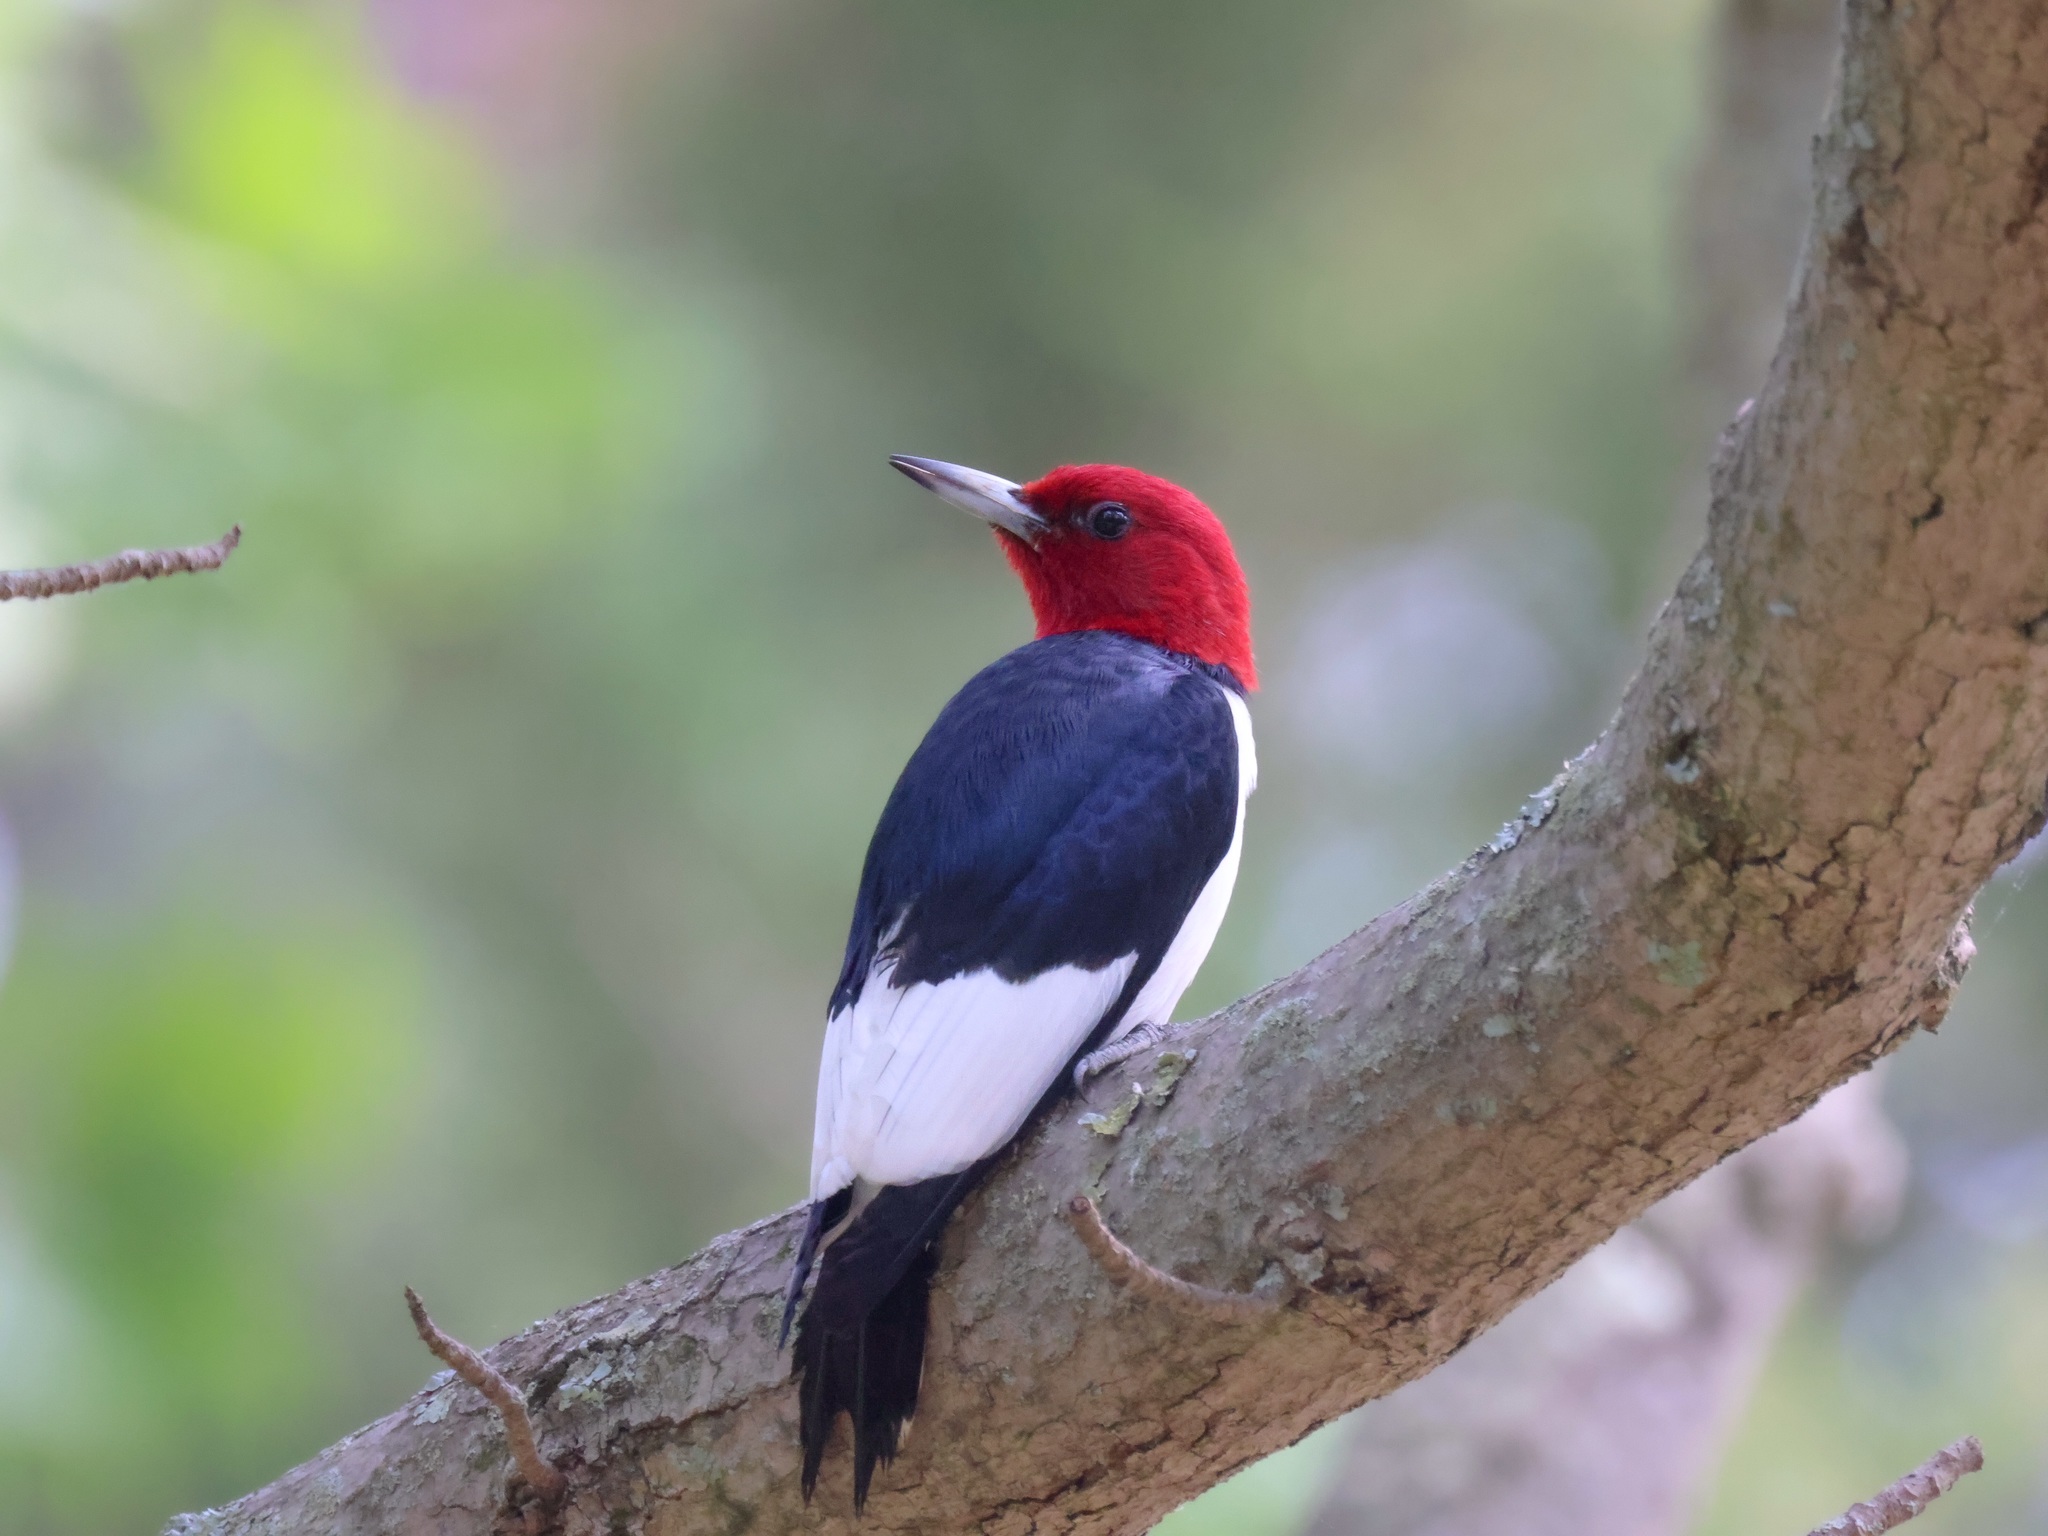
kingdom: Animalia
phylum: Chordata
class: Aves
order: Piciformes
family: Picidae
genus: Melanerpes
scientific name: Melanerpes erythrocephalus
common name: Red-headed woodpecker
